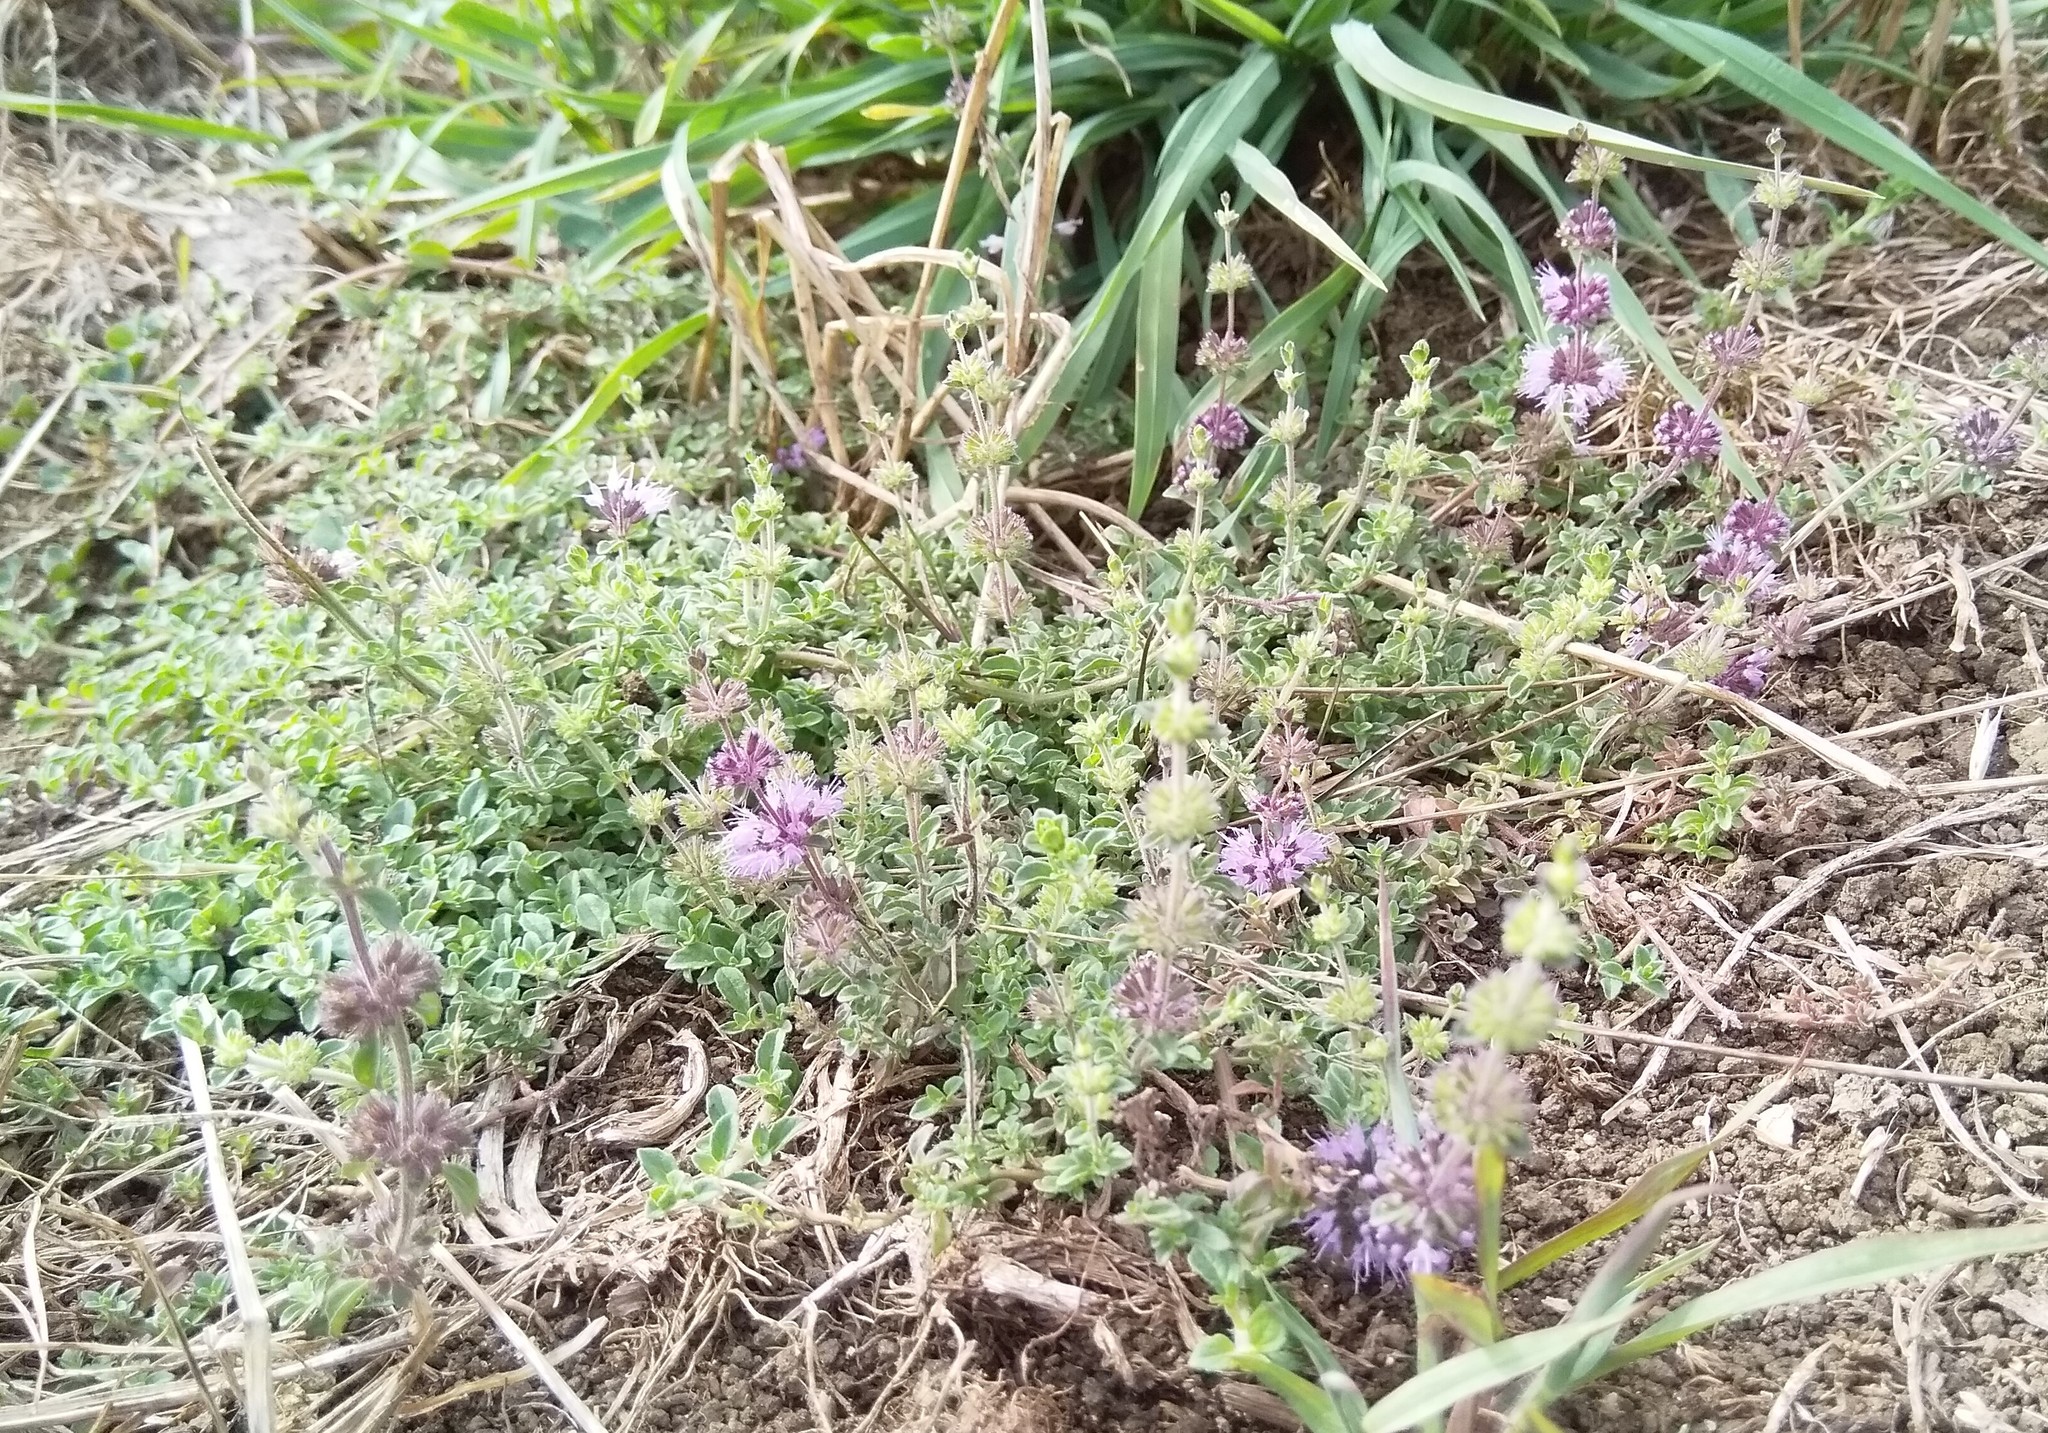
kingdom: Plantae
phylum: Tracheophyta
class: Magnoliopsida
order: Lamiales
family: Lamiaceae
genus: Mentha
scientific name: Mentha pulegium
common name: Pennyroyal
